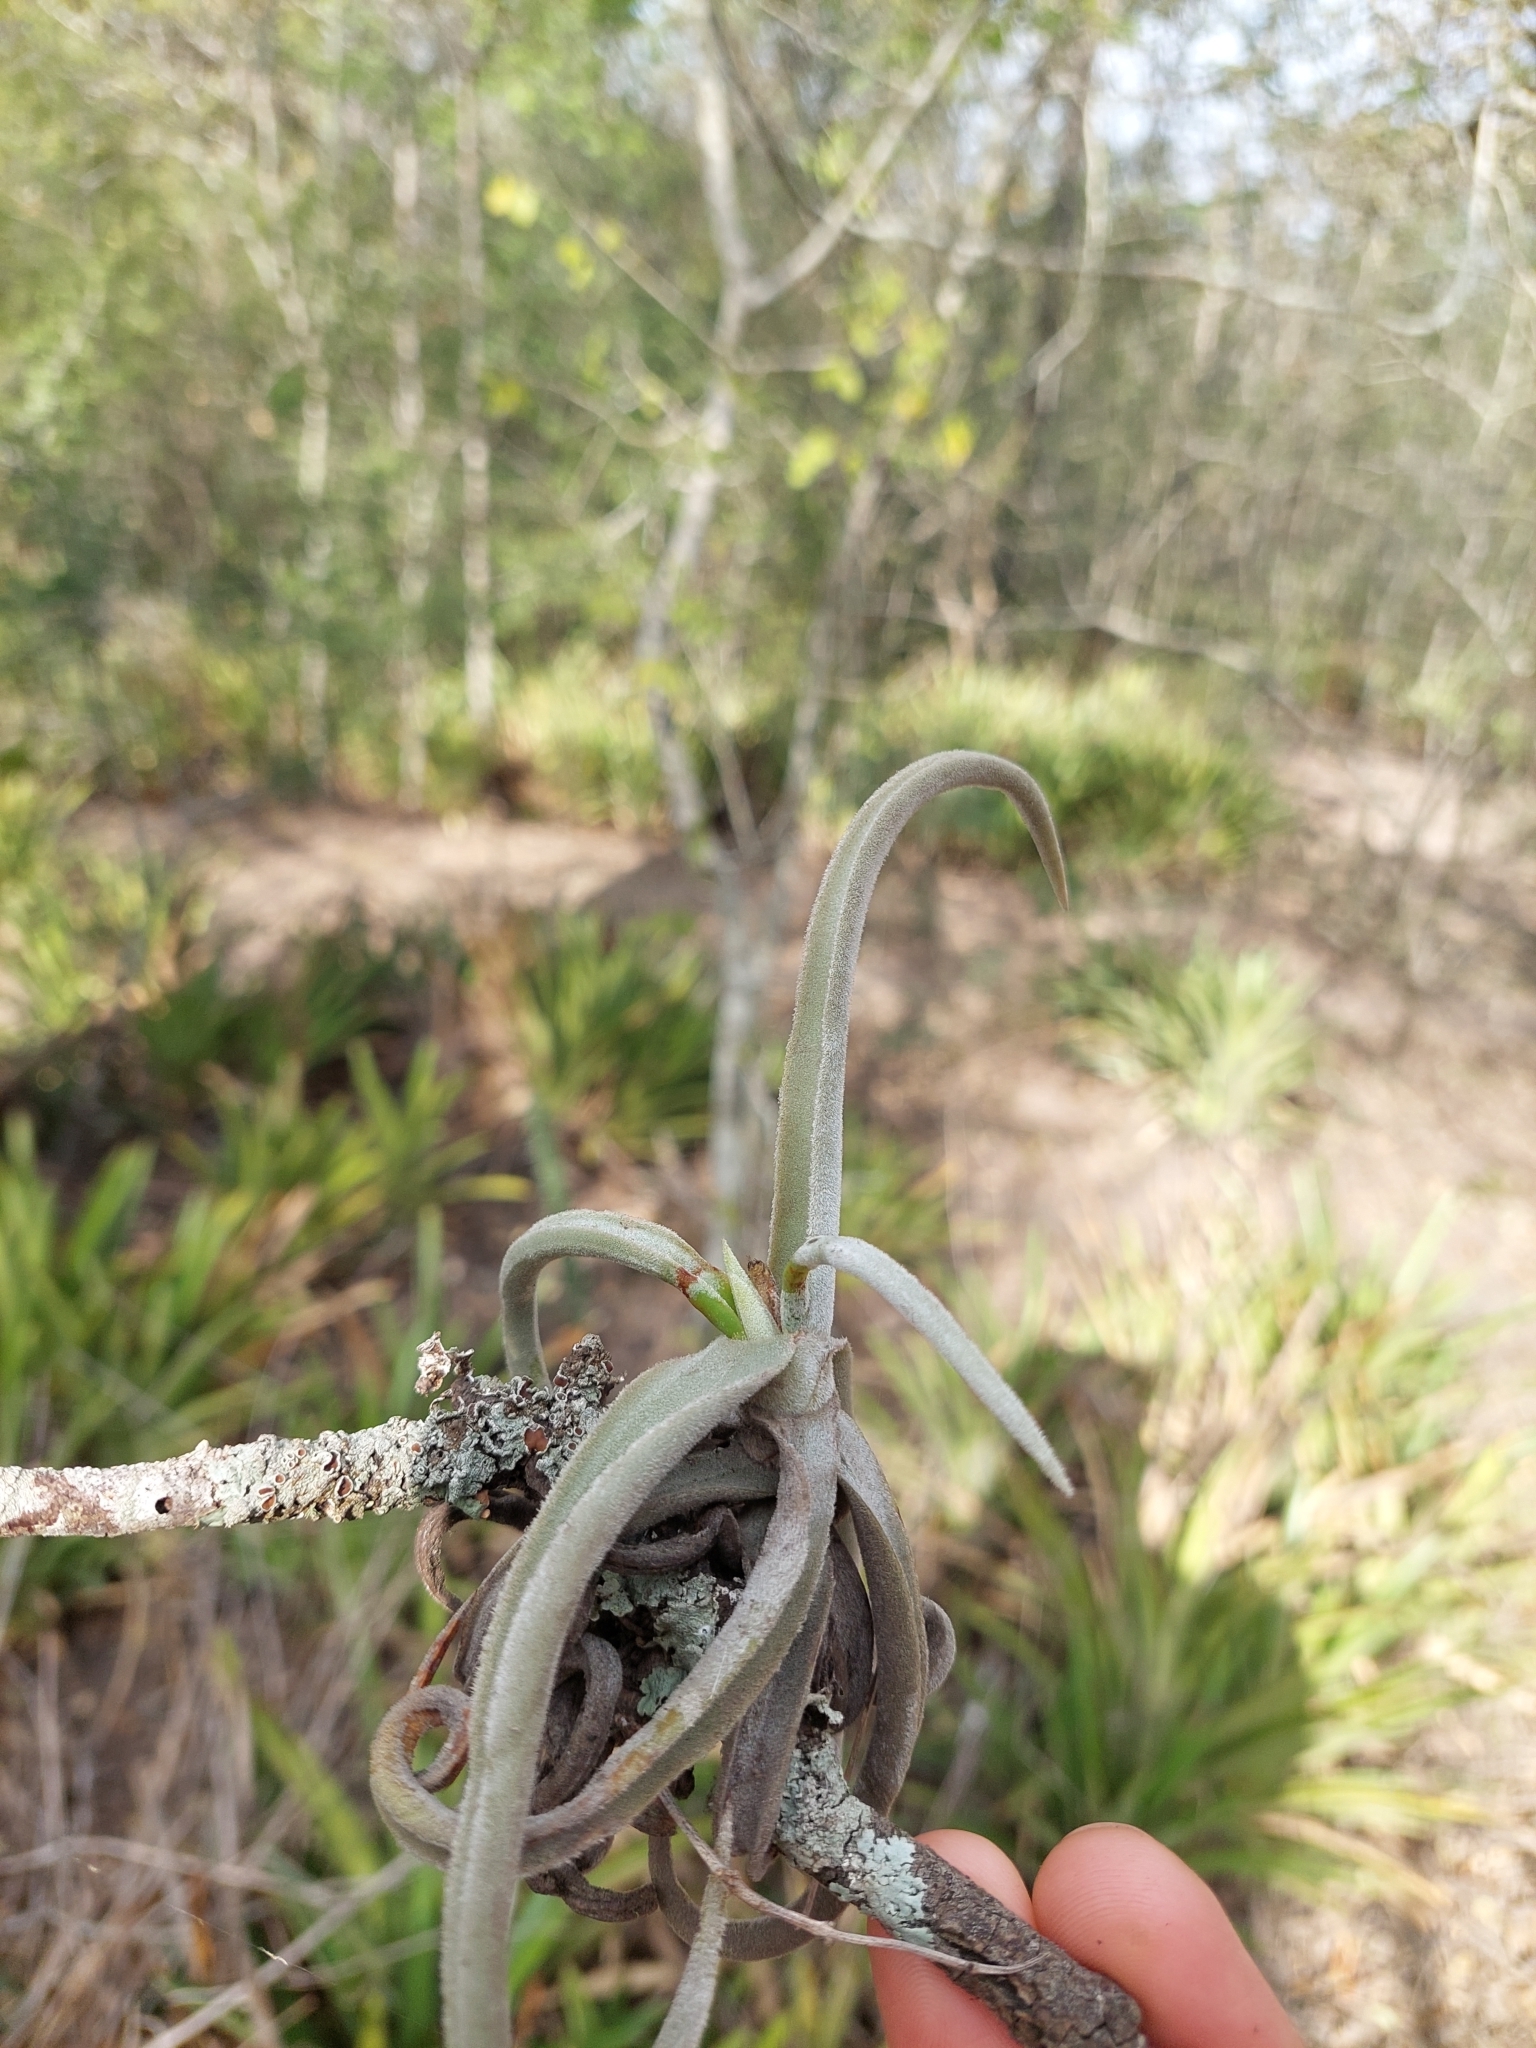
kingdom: Plantae
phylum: Tracheophyta
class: Liliopsida
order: Poales
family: Bromeliaceae
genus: Tillandsia
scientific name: Tillandsia duratii
